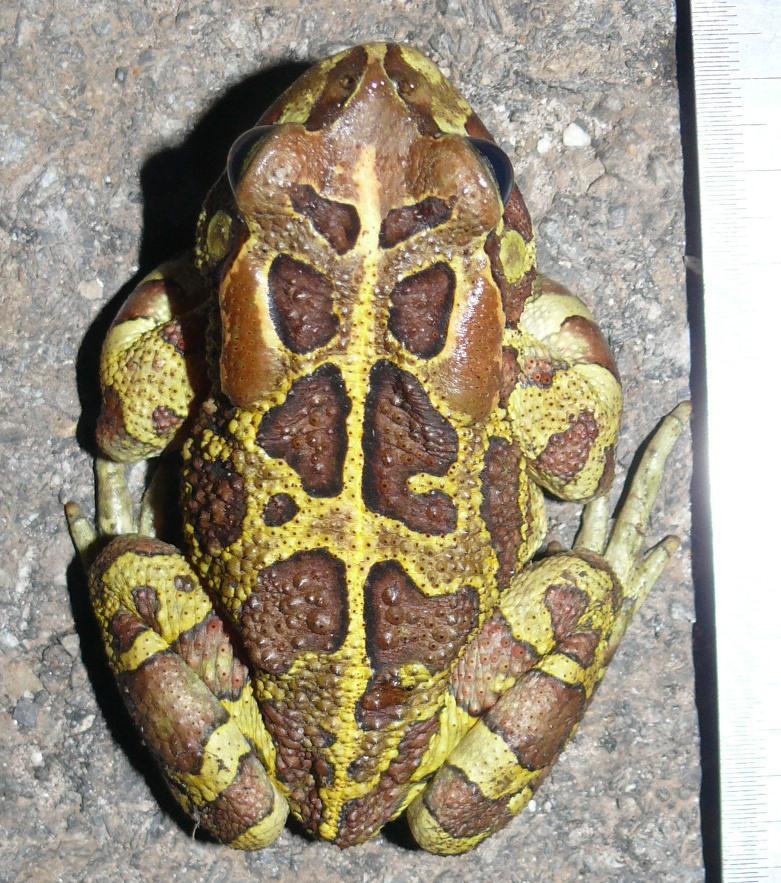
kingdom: Animalia
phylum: Chordata
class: Amphibia
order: Anura
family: Bufonidae
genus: Sclerophrys
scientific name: Sclerophrys pantherina
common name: Panther toad
